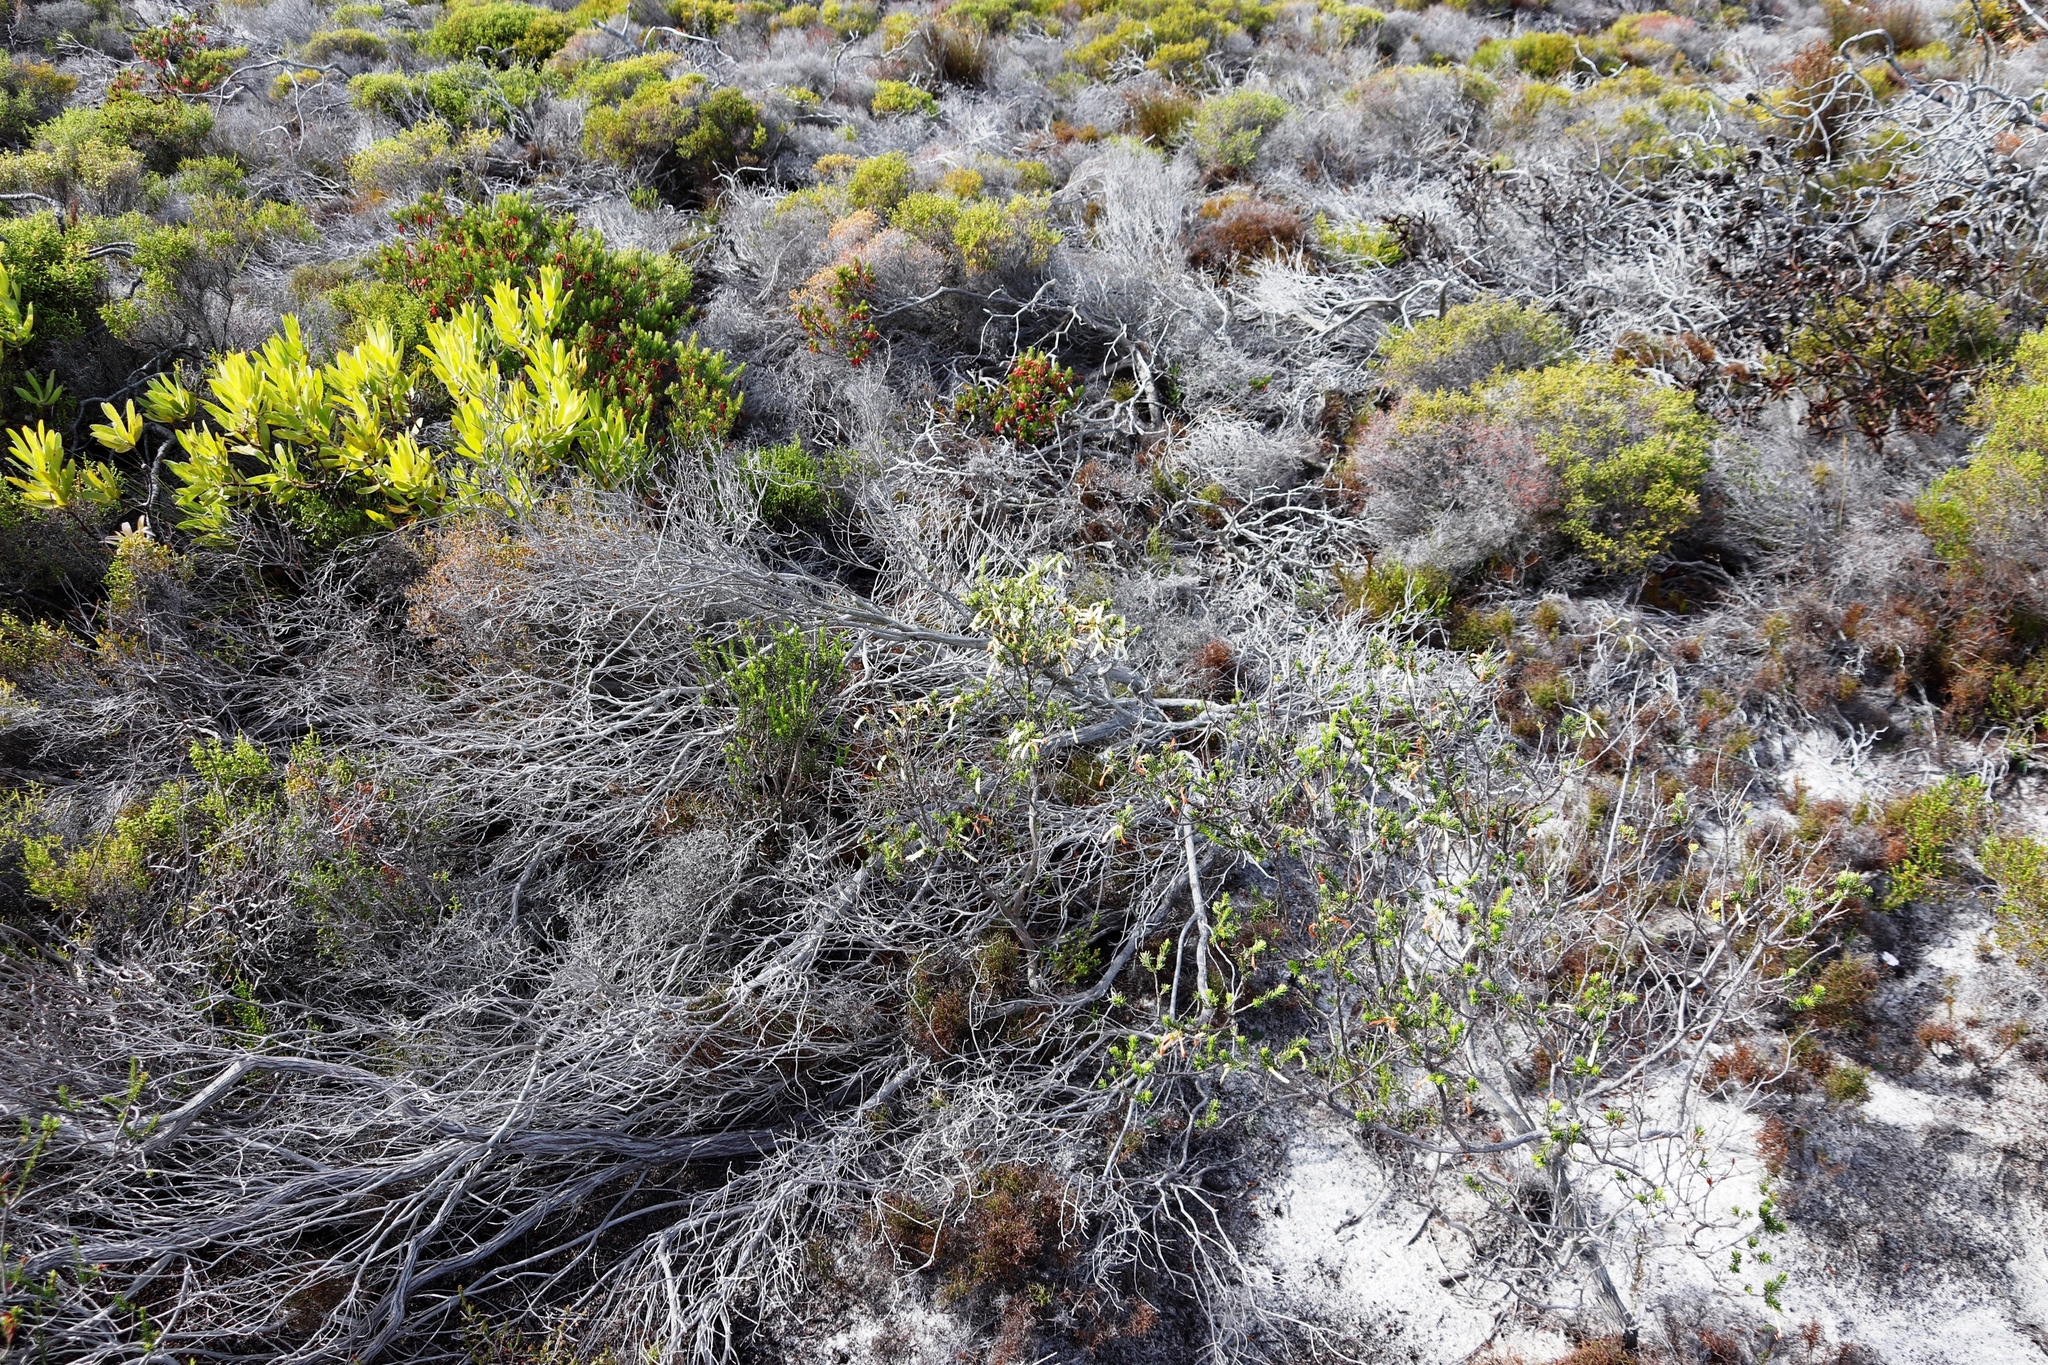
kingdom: Plantae
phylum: Tracheophyta
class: Magnoliopsida
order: Ericales
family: Ericaceae
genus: Erica
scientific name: Erica mammosa
